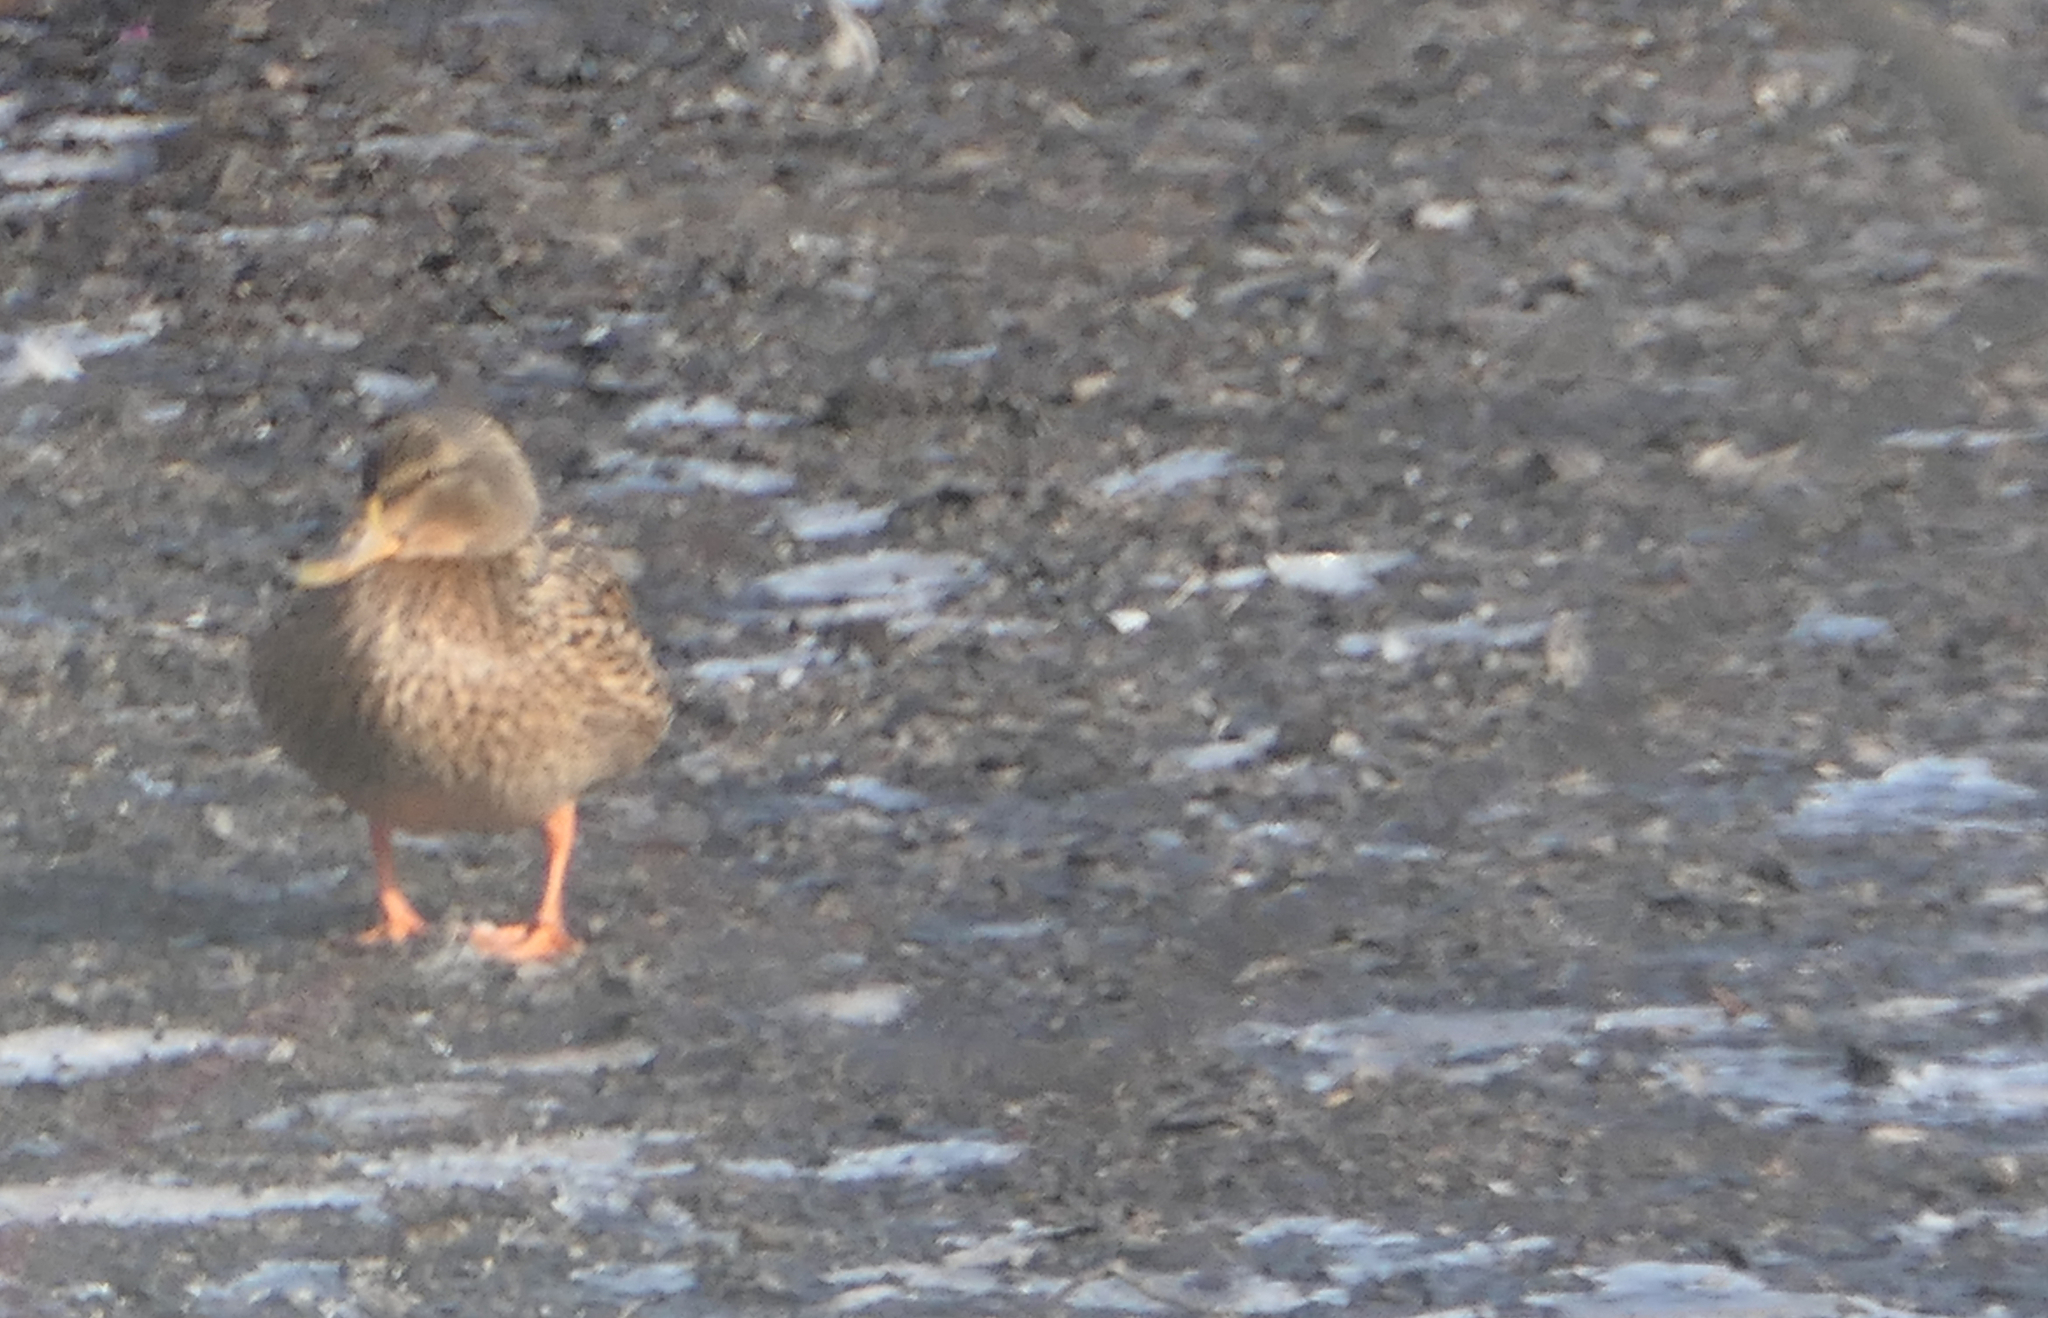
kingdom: Animalia
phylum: Chordata
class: Aves
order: Anseriformes
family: Anatidae
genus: Anas
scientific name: Anas platyrhynchos
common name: Mallard
